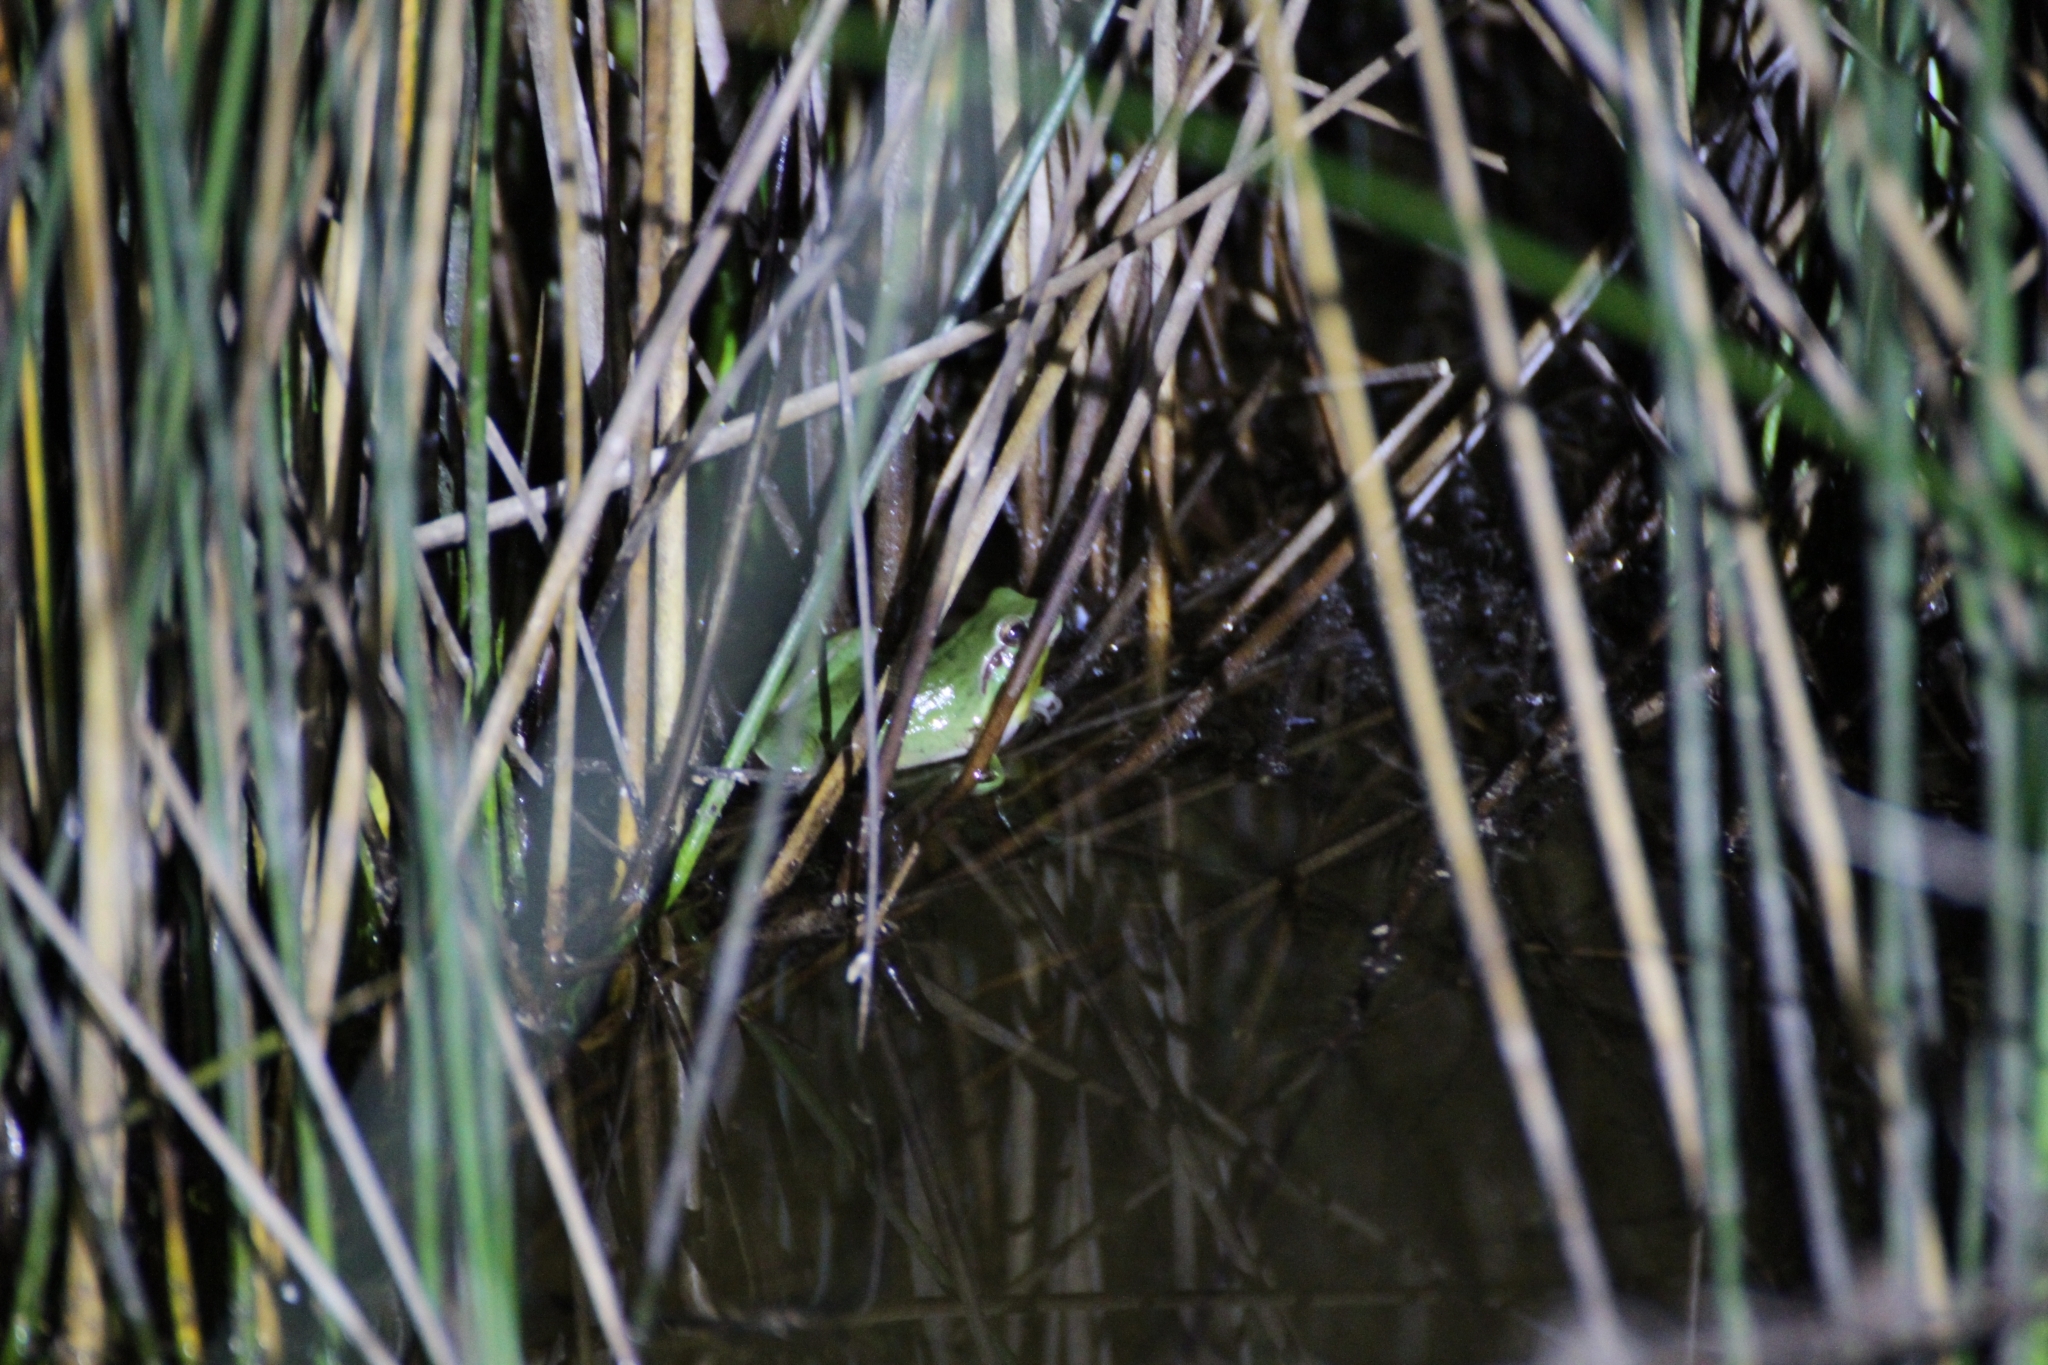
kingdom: Animalia
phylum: Chordata
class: Amphibia
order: Anura
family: Hylidae
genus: Hyla
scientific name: Hyla meridionalis
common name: Stripeless tree frog
